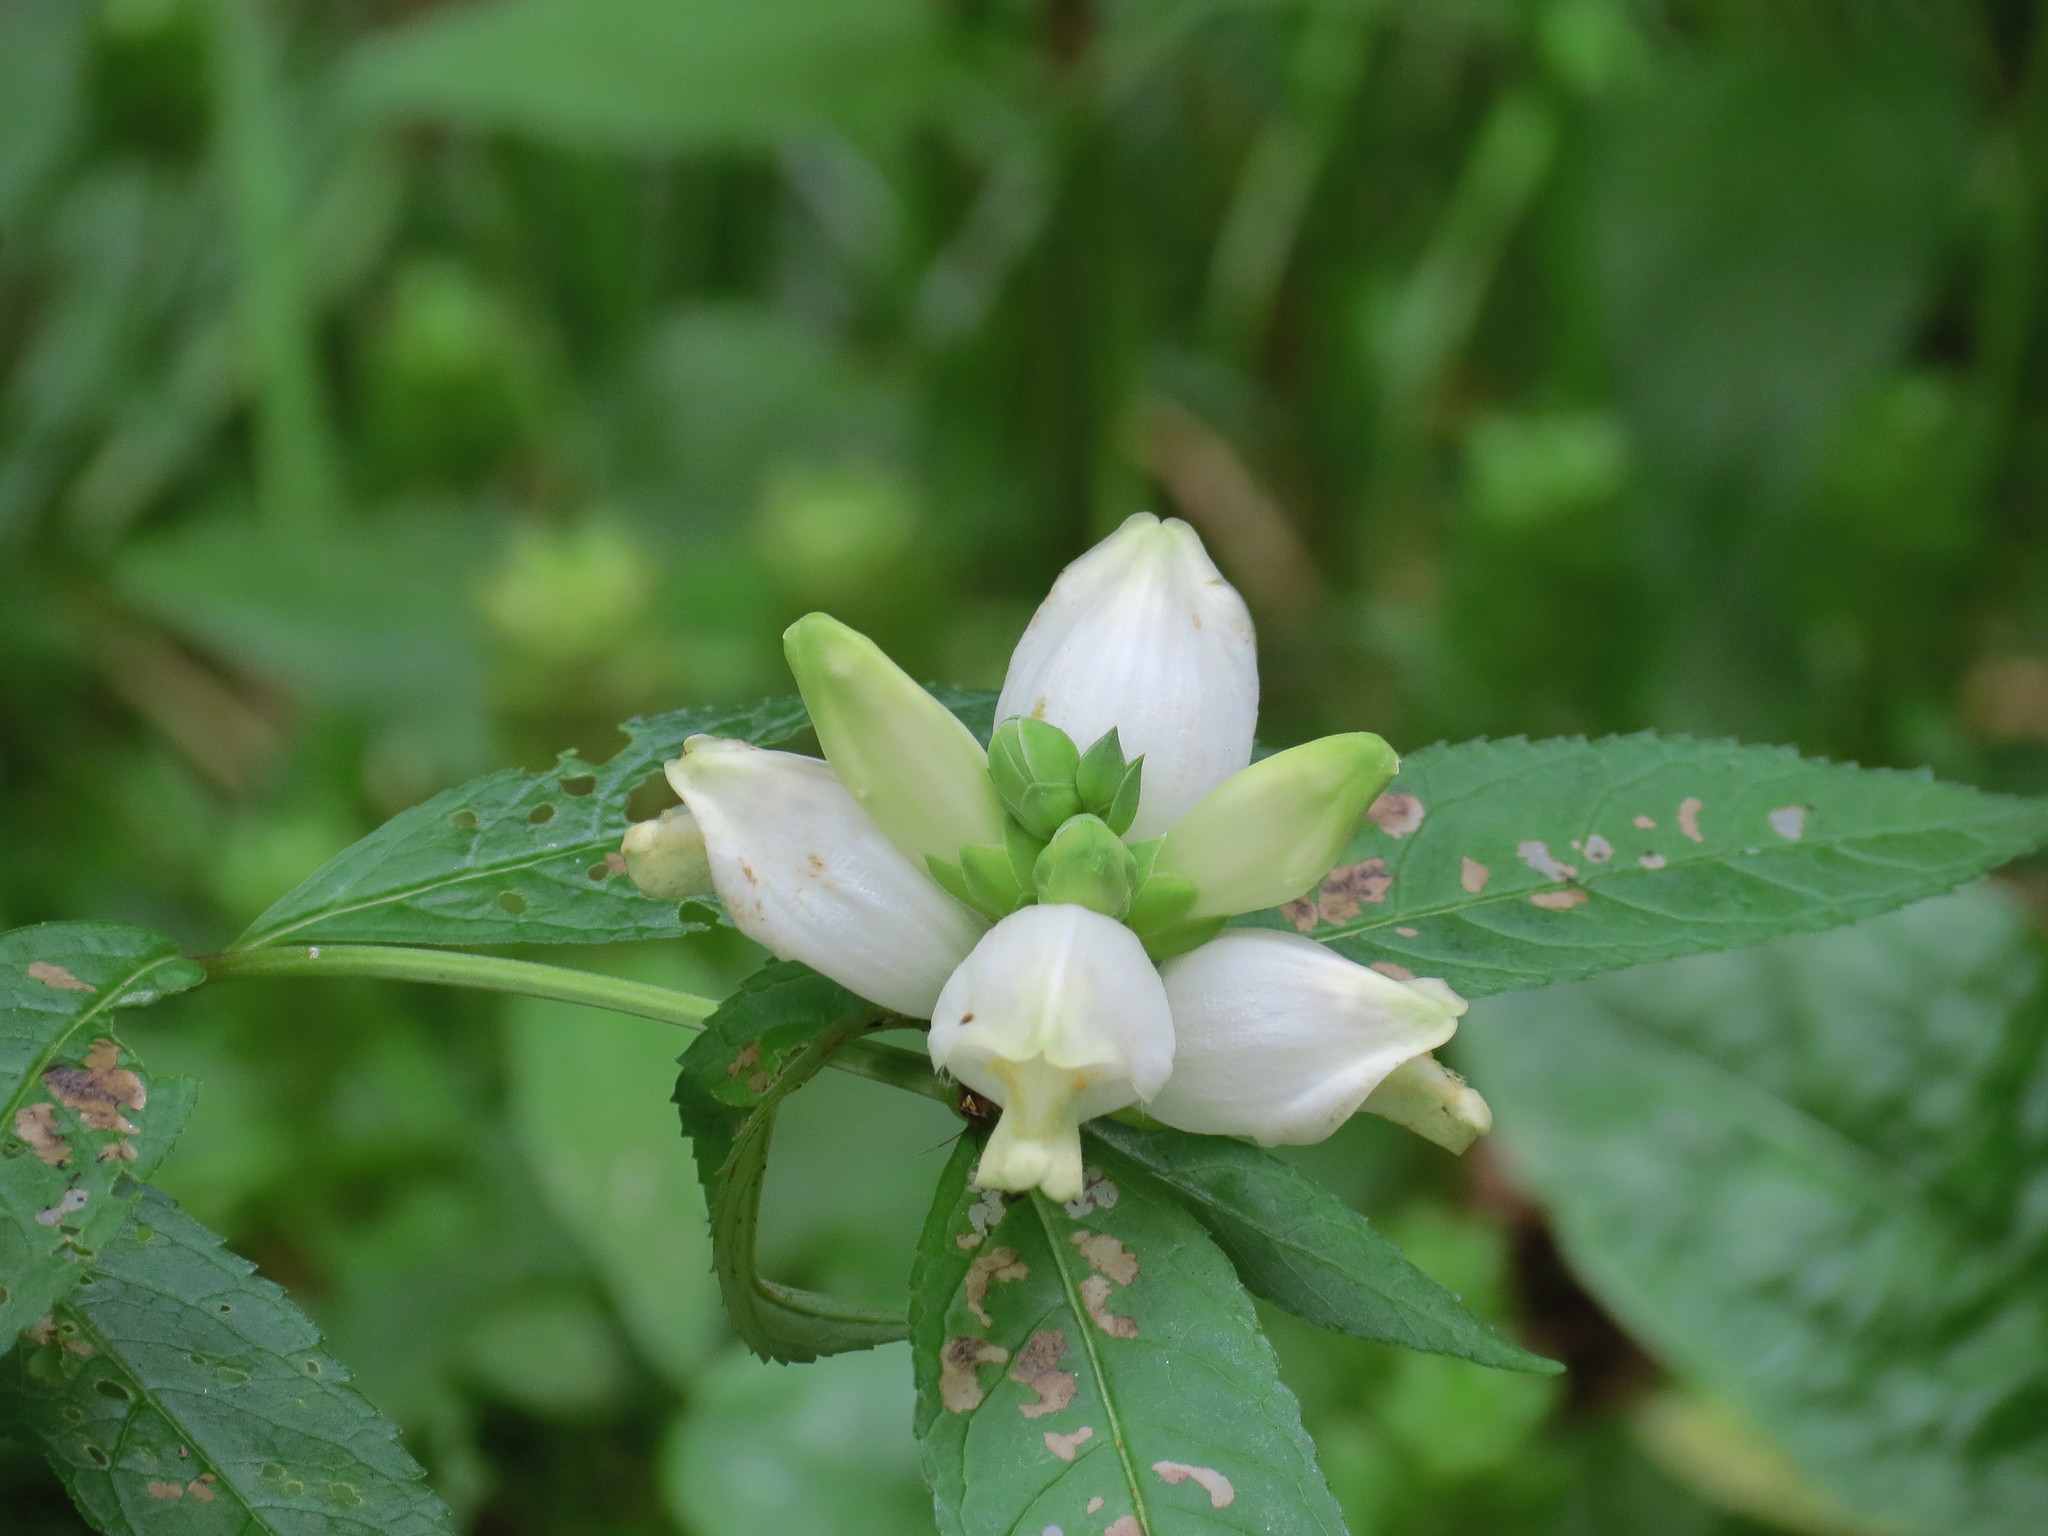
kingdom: Plantae
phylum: Tracheophyta
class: Magnoliopsida
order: Lamiales
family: Plantaginaceae
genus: Chelone
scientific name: Chelone glabra
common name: Snakehead
